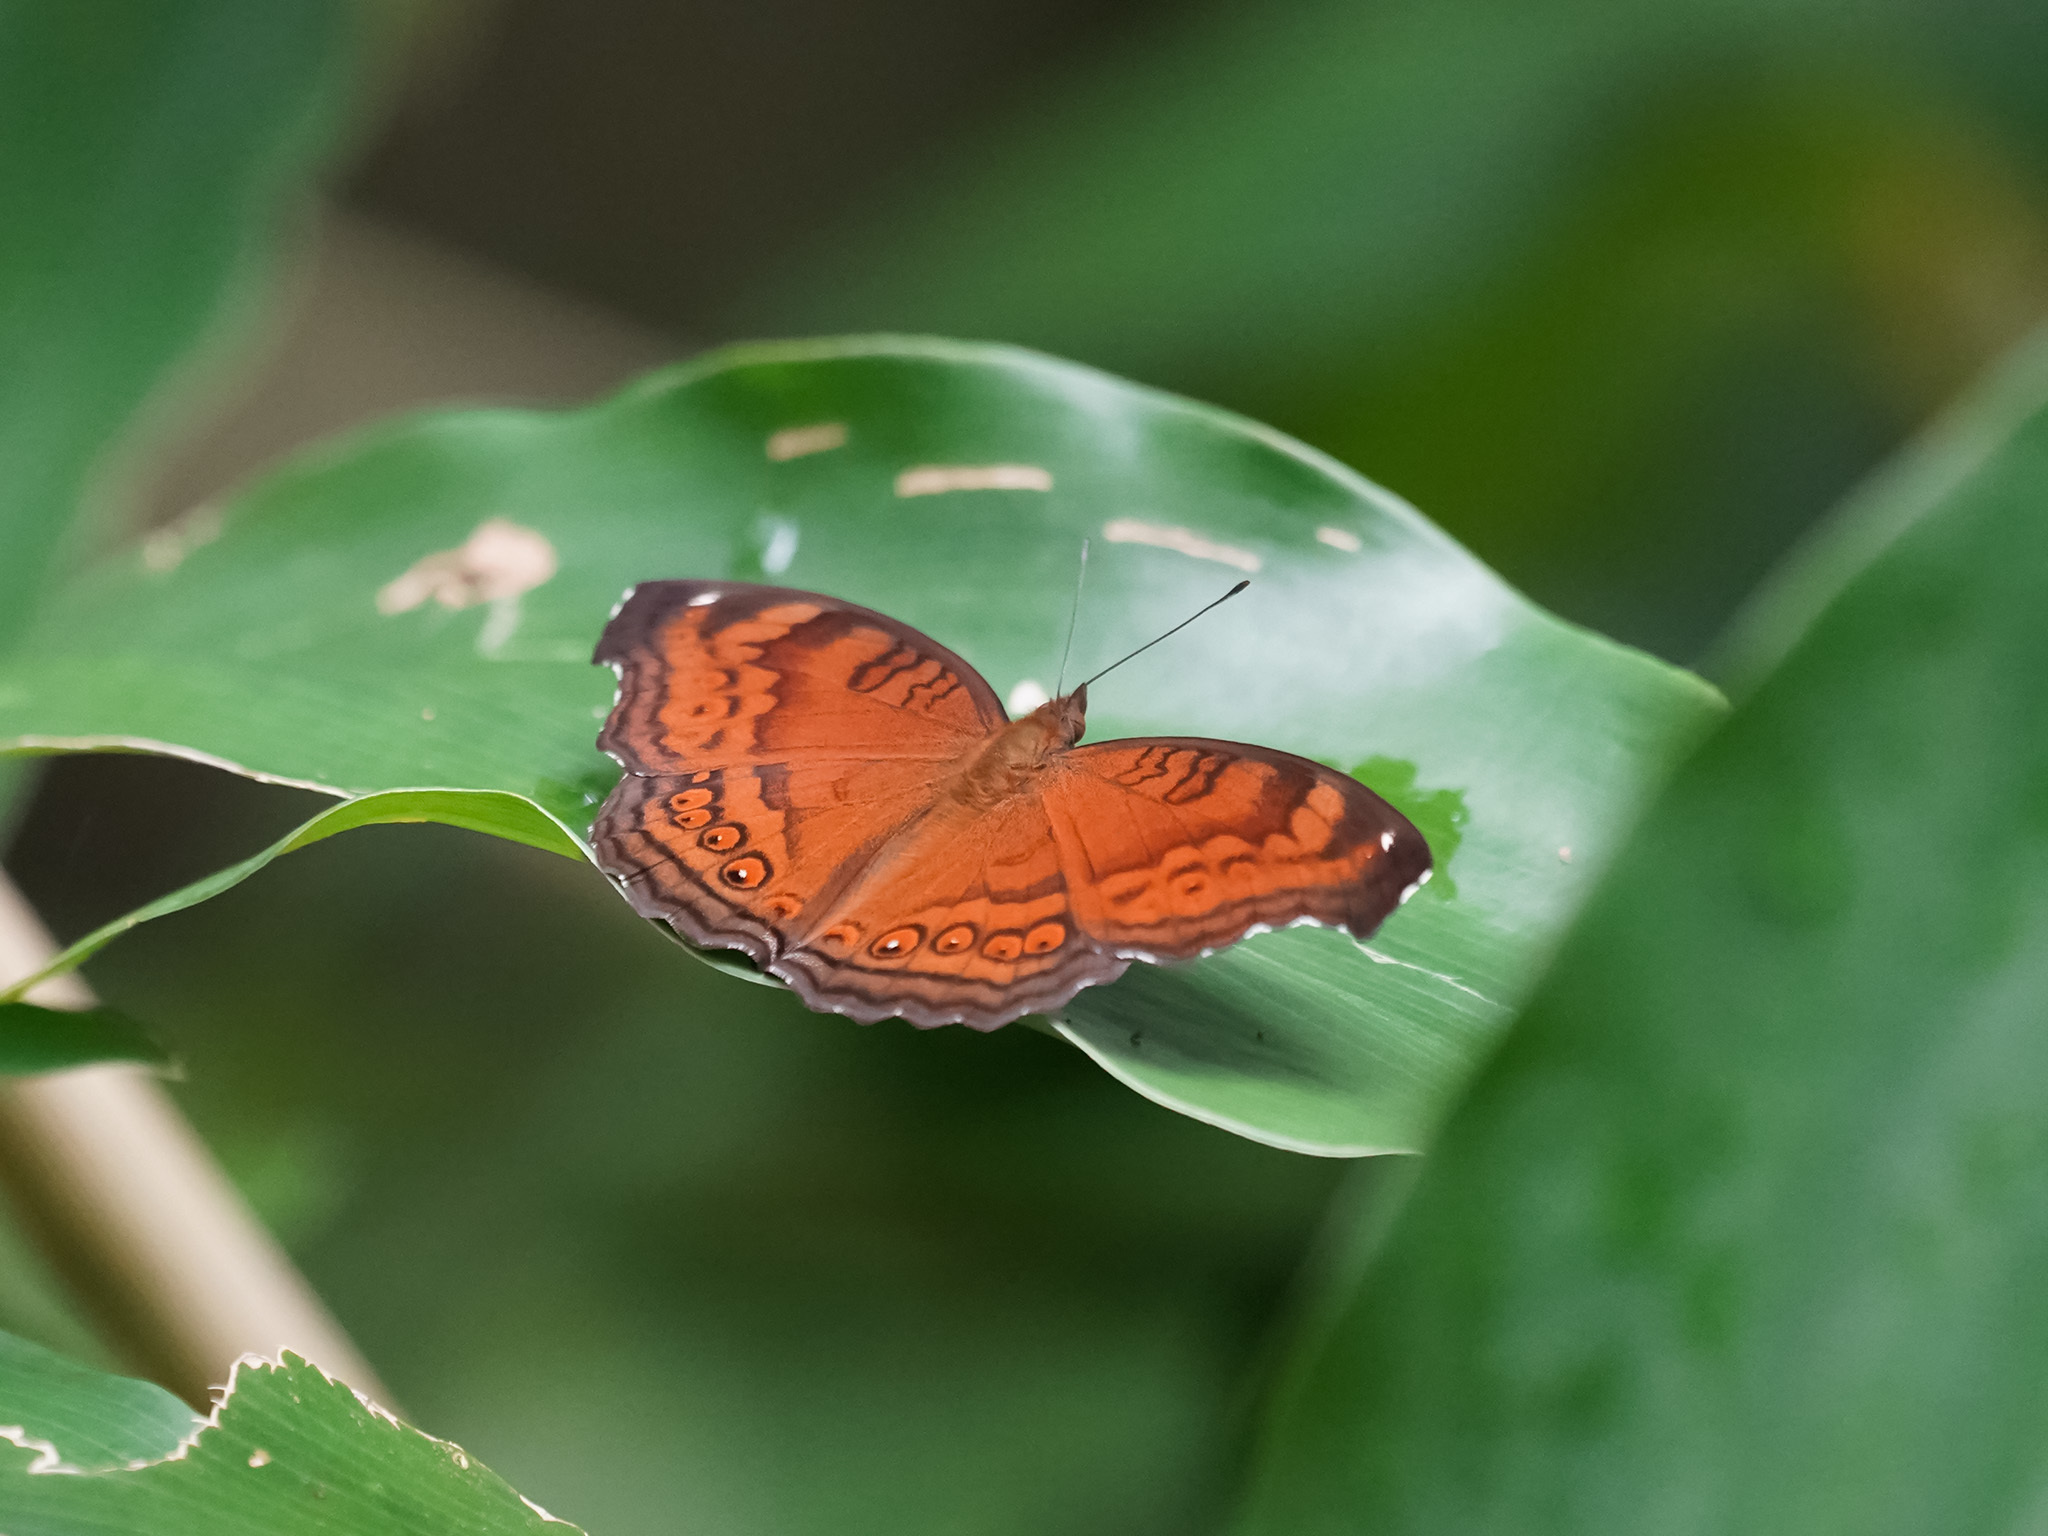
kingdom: Animalia
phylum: Arthropoda
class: Insecta
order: Lepidoptera
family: Nymphalidae
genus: Junonia
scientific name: Junonia hedonia
